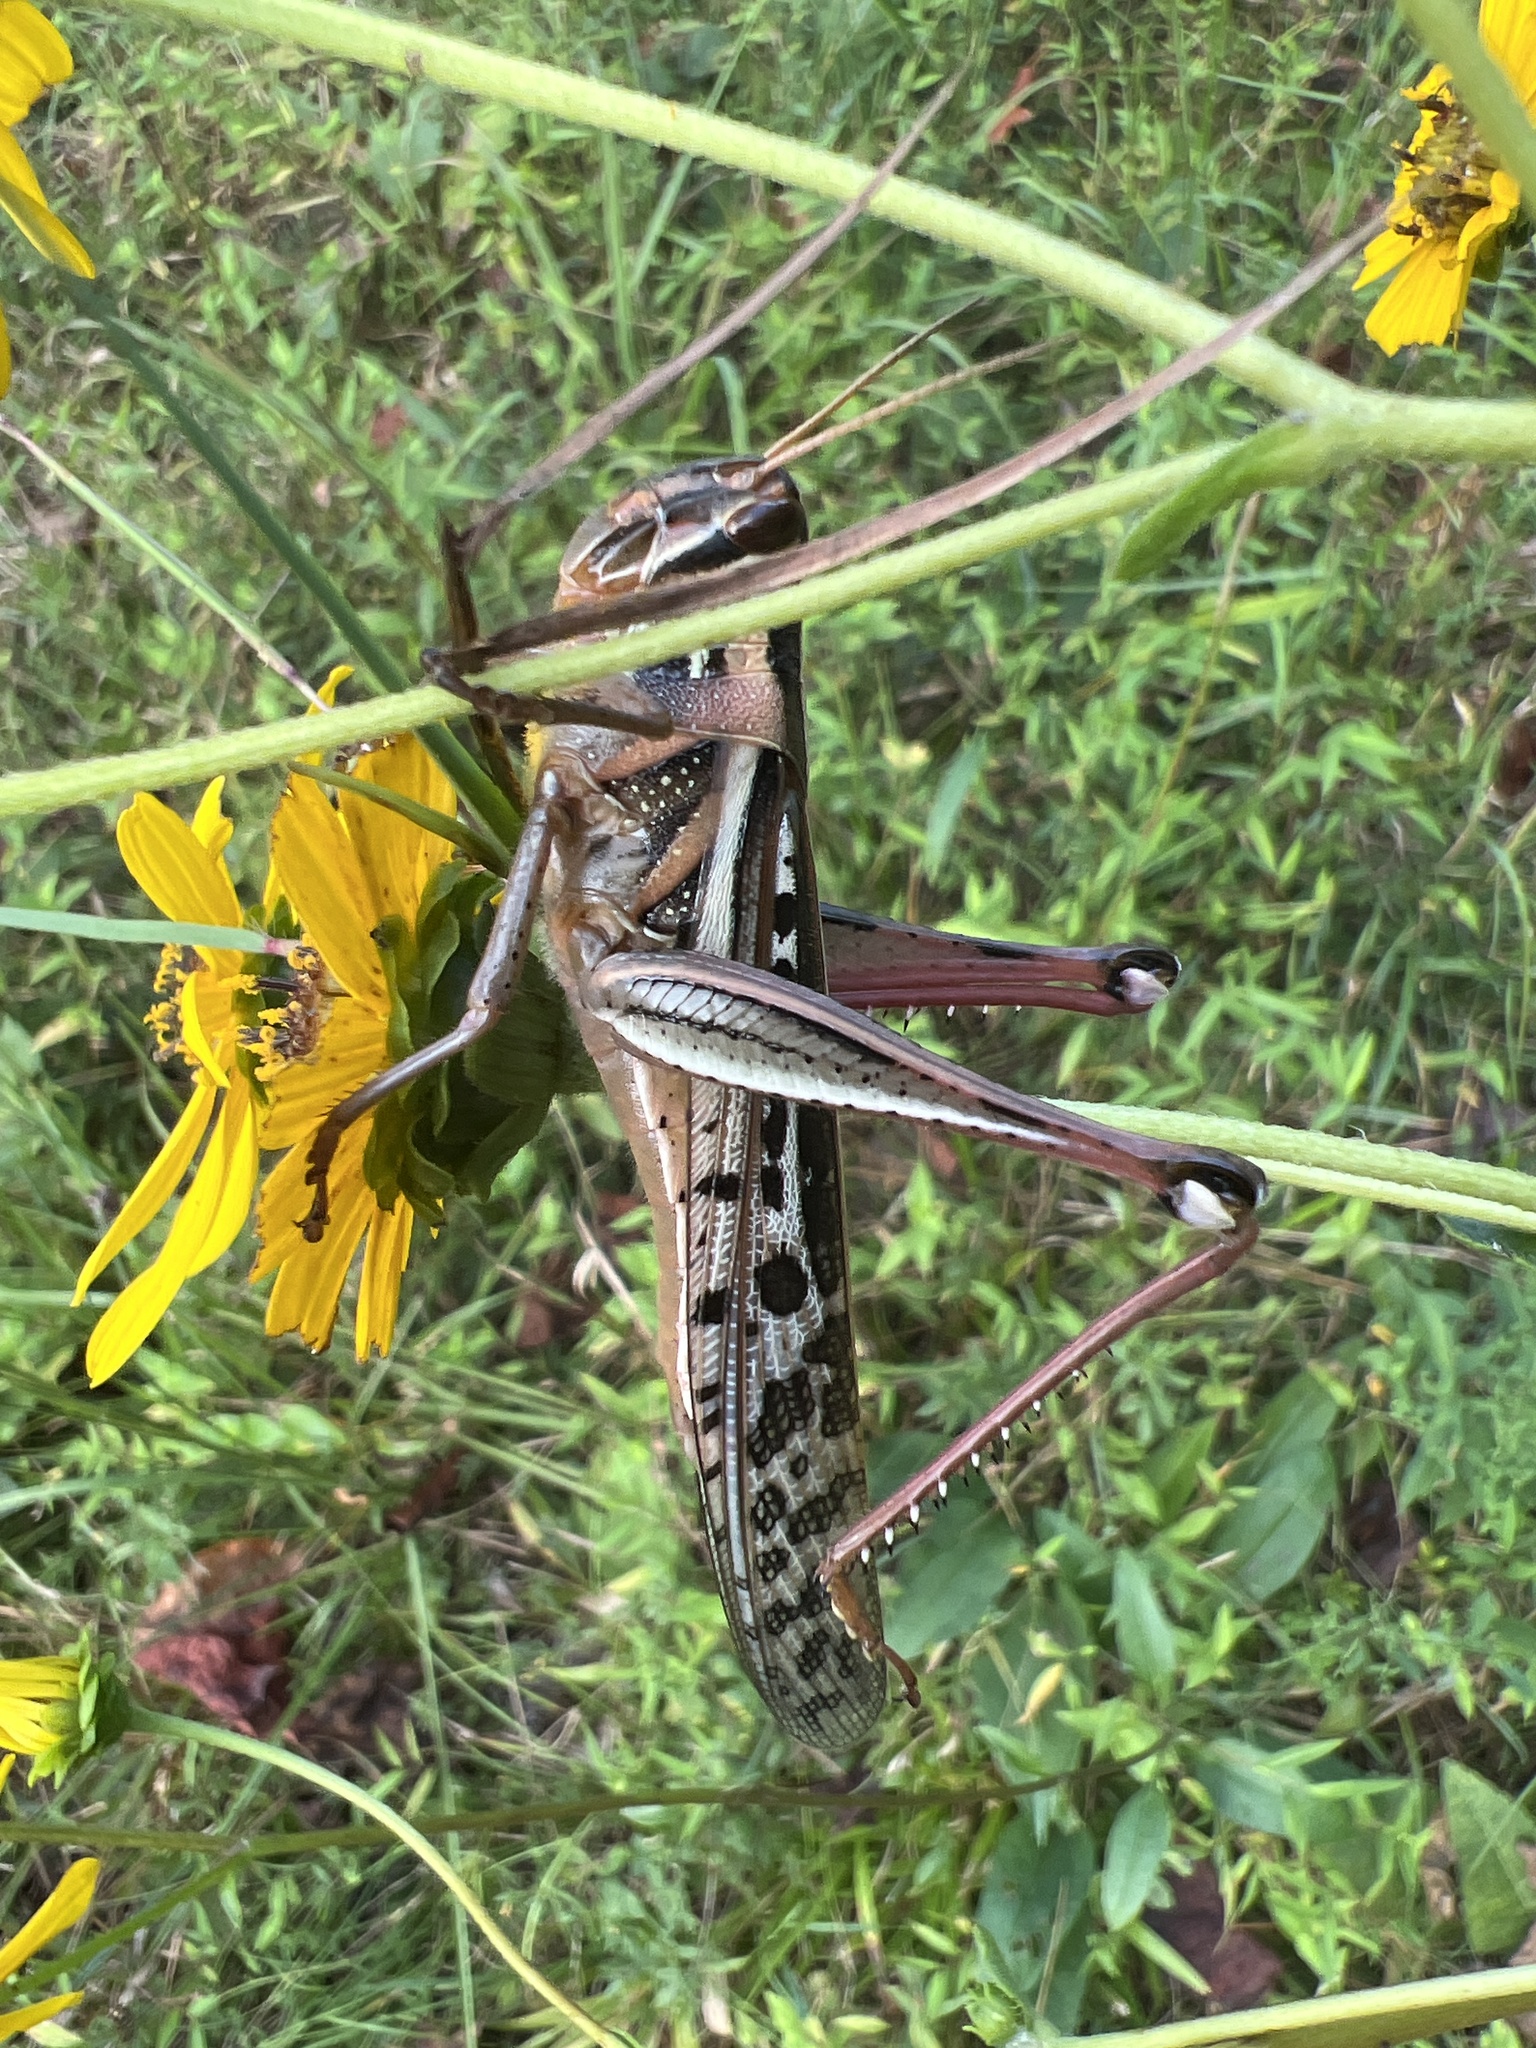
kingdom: Animalia
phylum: Arthropoda
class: Insecta
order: Orthoptera
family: Acrididae
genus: Schistocerca
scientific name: Schistocerca americana
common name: American bird locust
